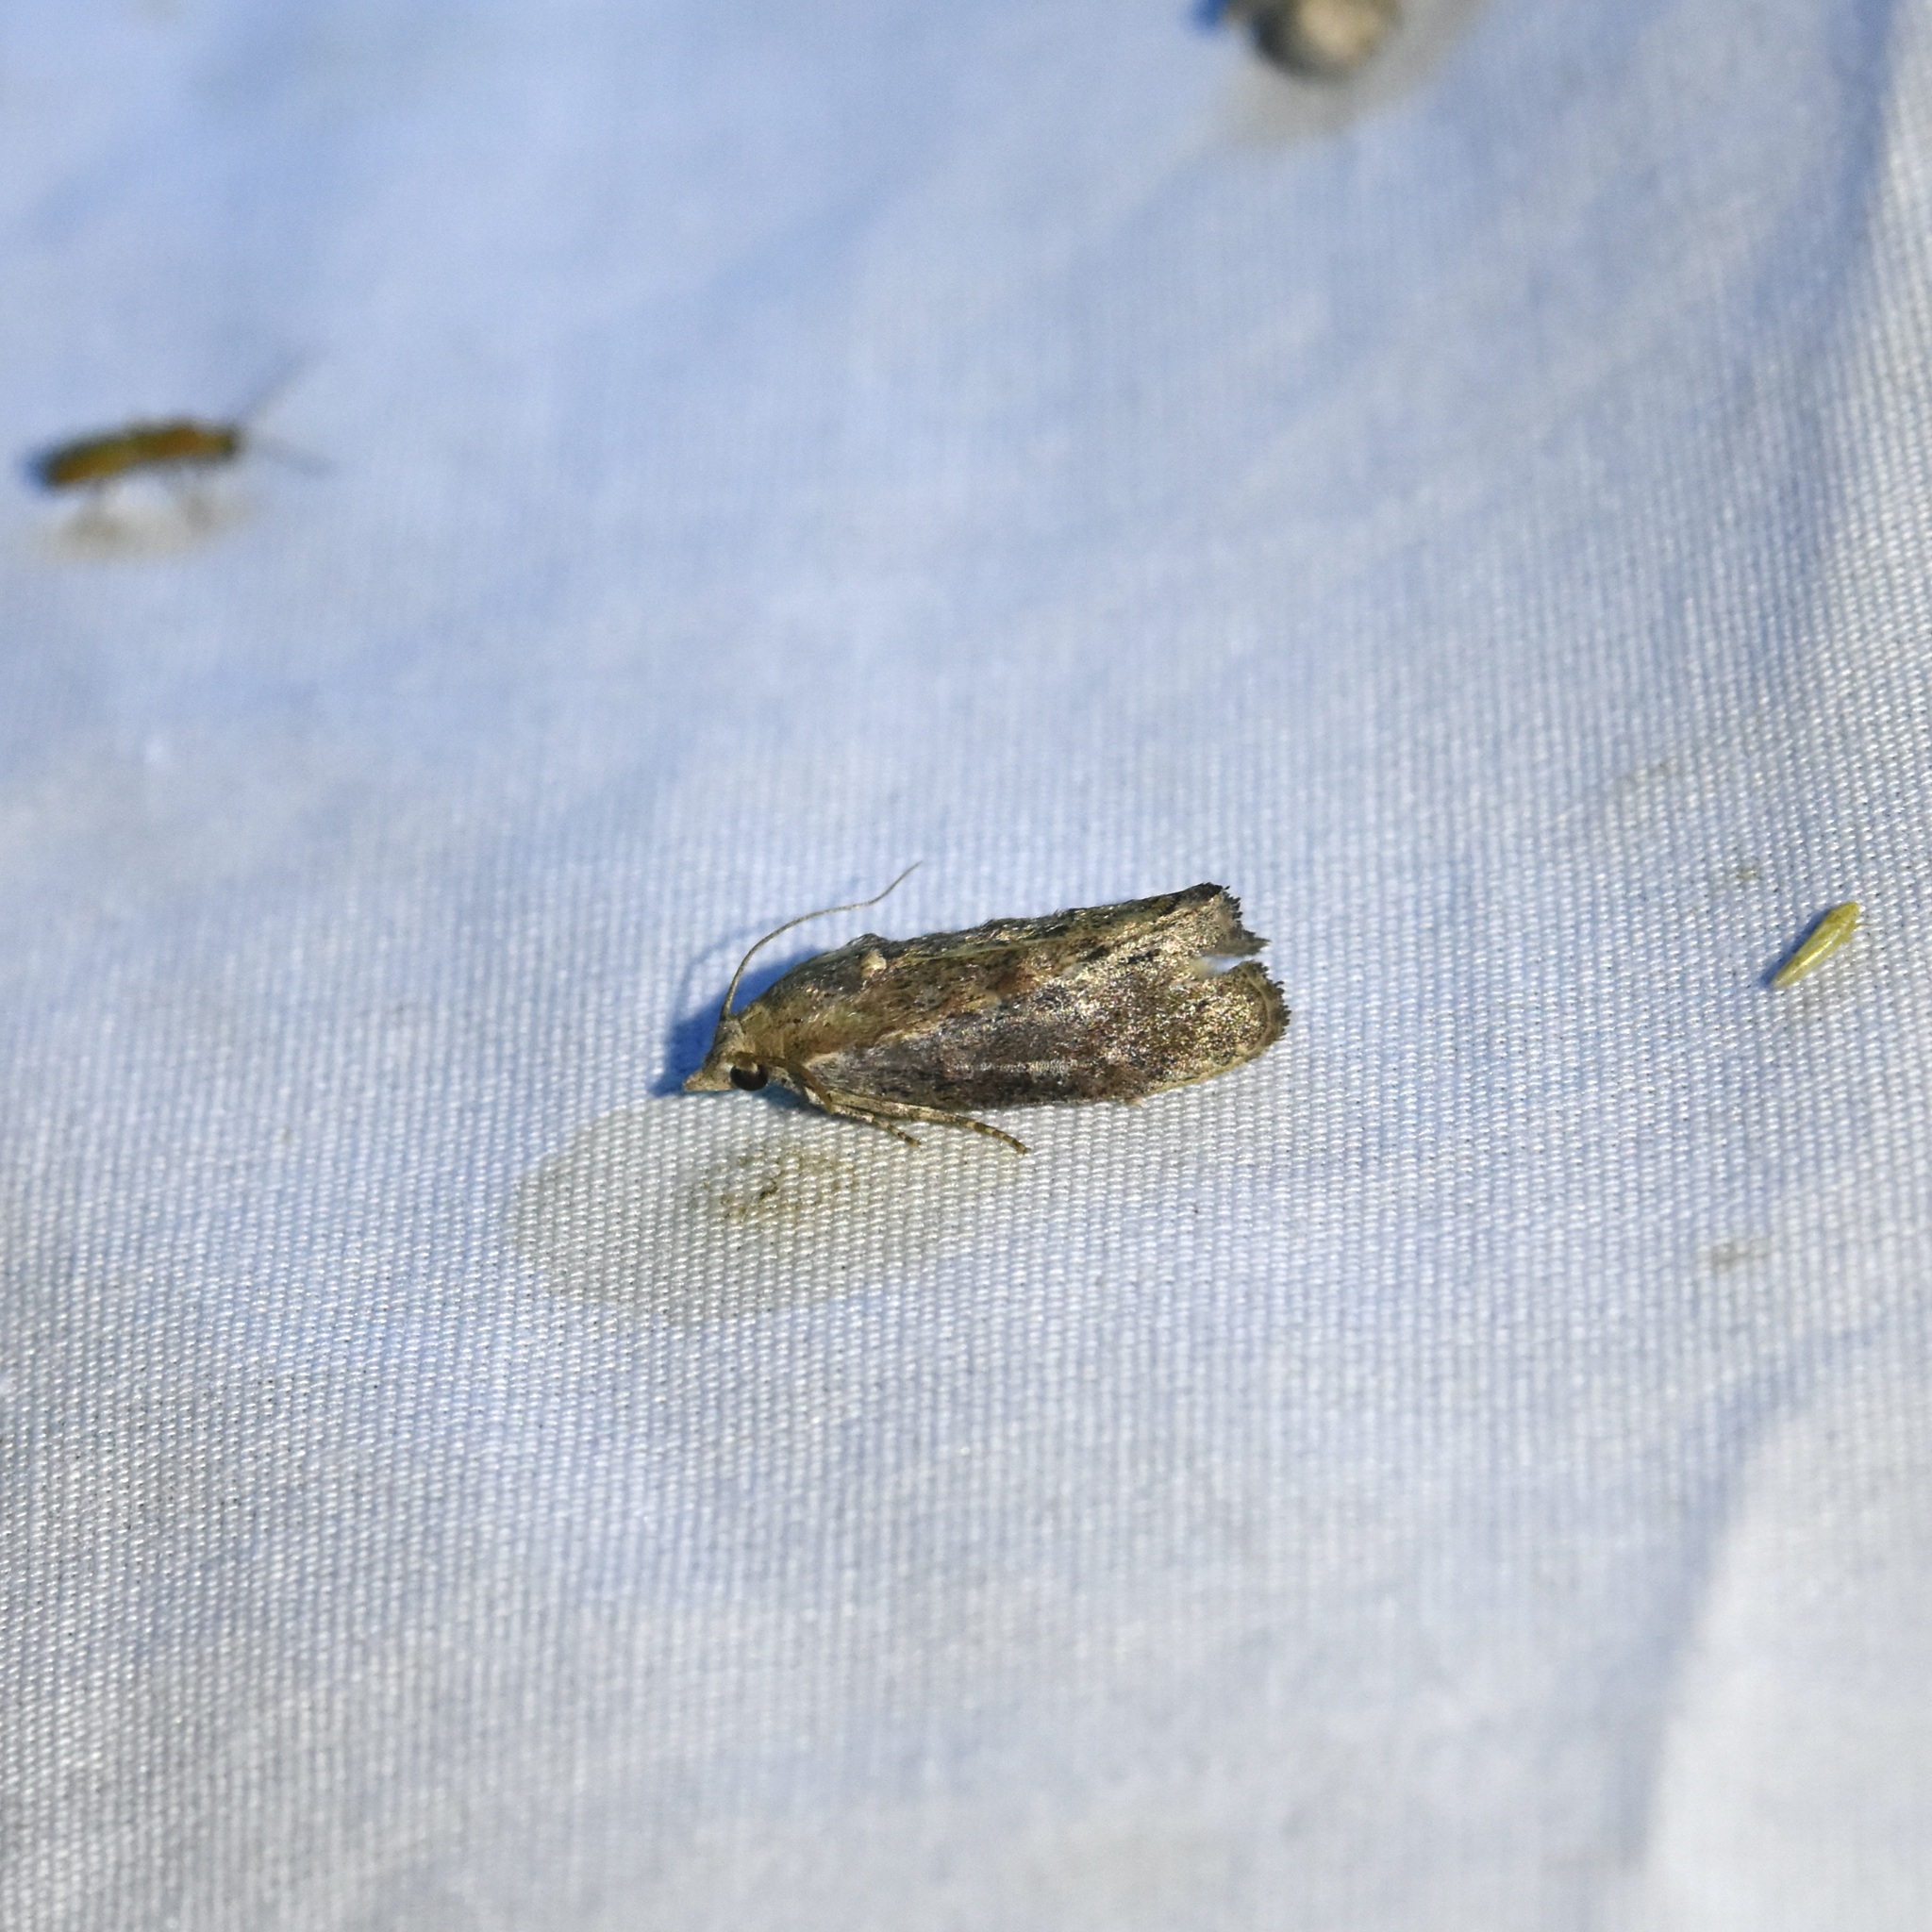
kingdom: Animalia
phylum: Arthropoda
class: Insecta
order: Lepidoptera
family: Pyralidae
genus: Galleria
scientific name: Galleria mellonella
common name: Greater wax moth
